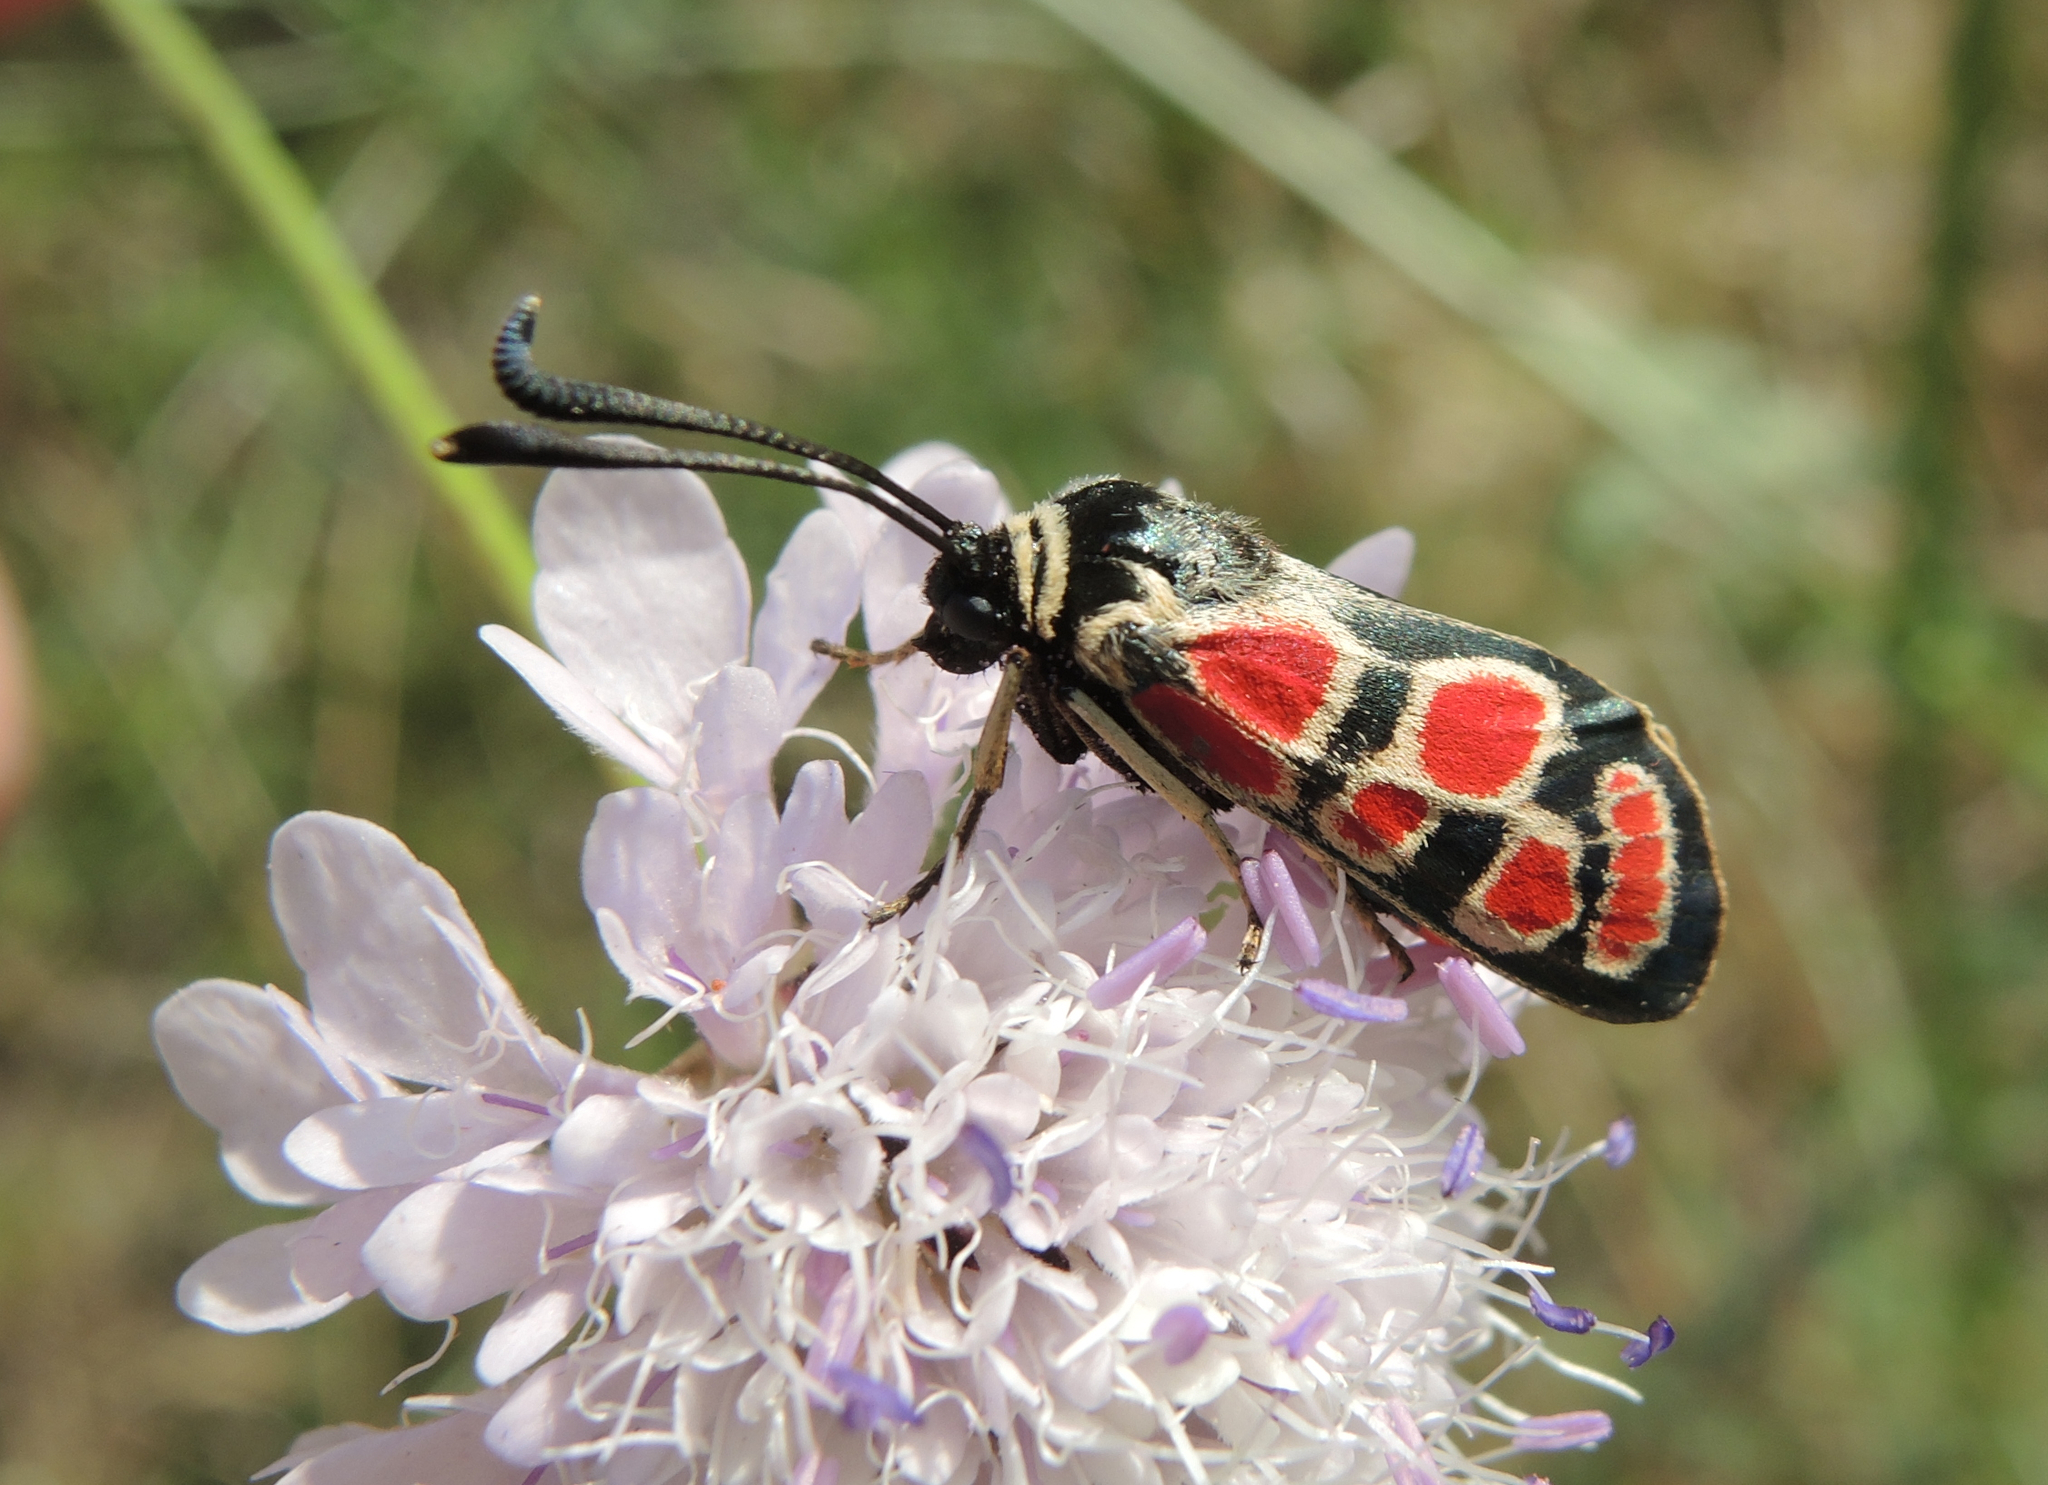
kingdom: Animalia
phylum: Arthropoda
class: Insecta
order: Lepidoptera
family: Zygaenidae
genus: Zygaena
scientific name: Zygaena carniolica
